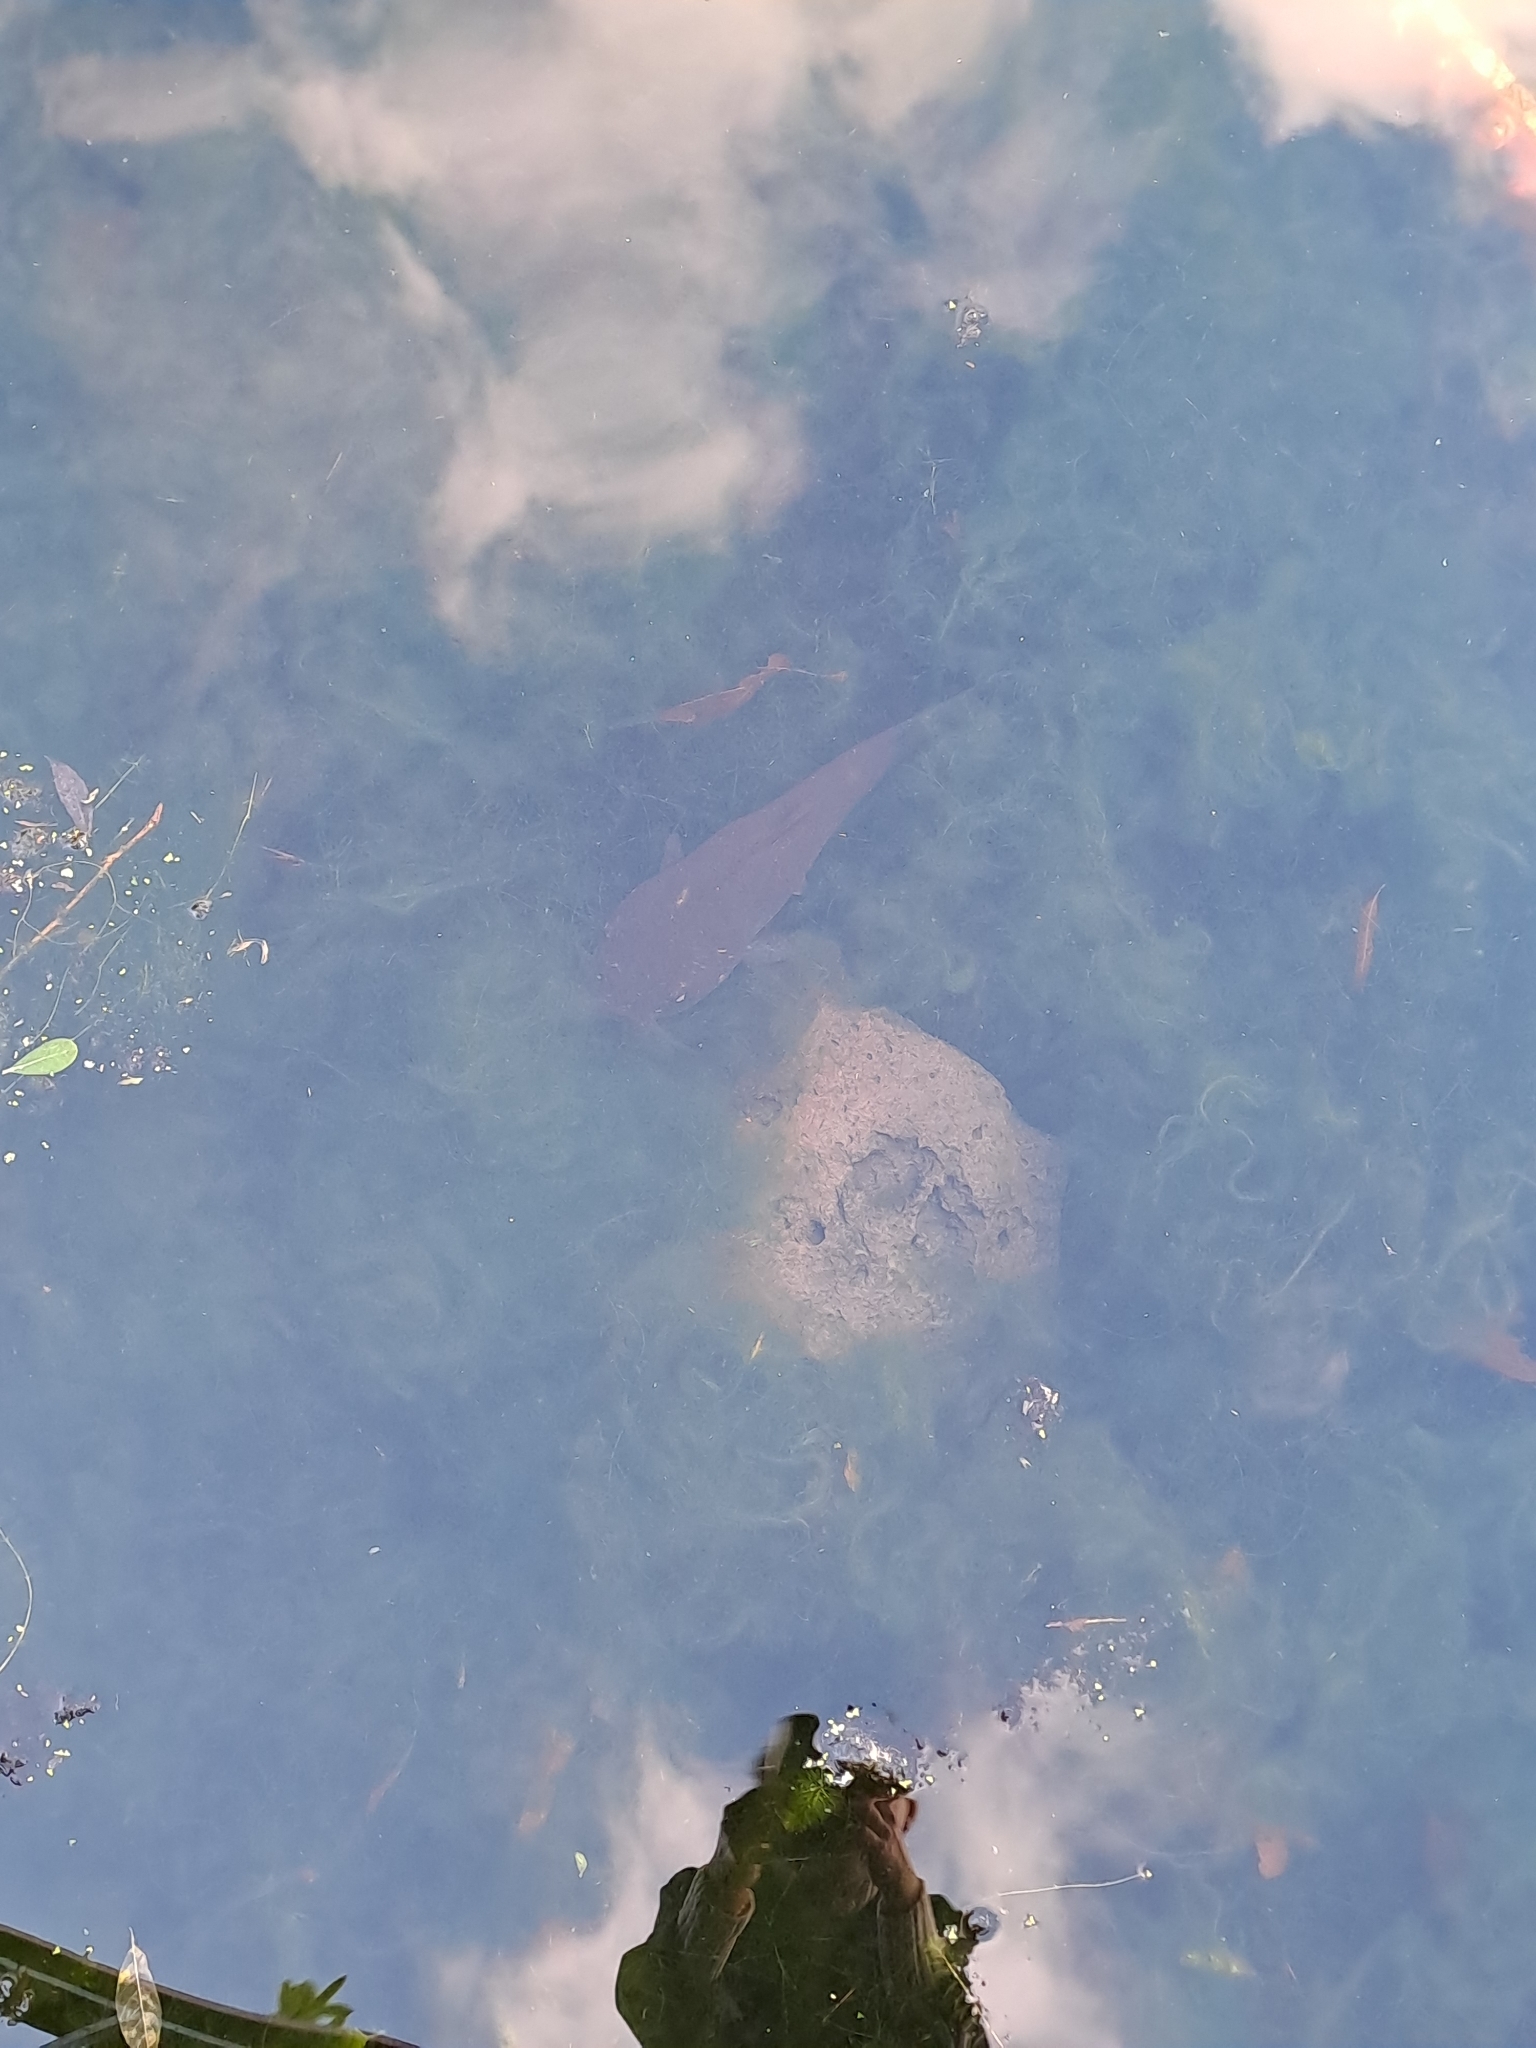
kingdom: Animalia
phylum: Chordata
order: Siluriformes
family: Ictaluridae
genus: Ameiurus
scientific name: Ameiurus nebulosus
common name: Brown bullhead
